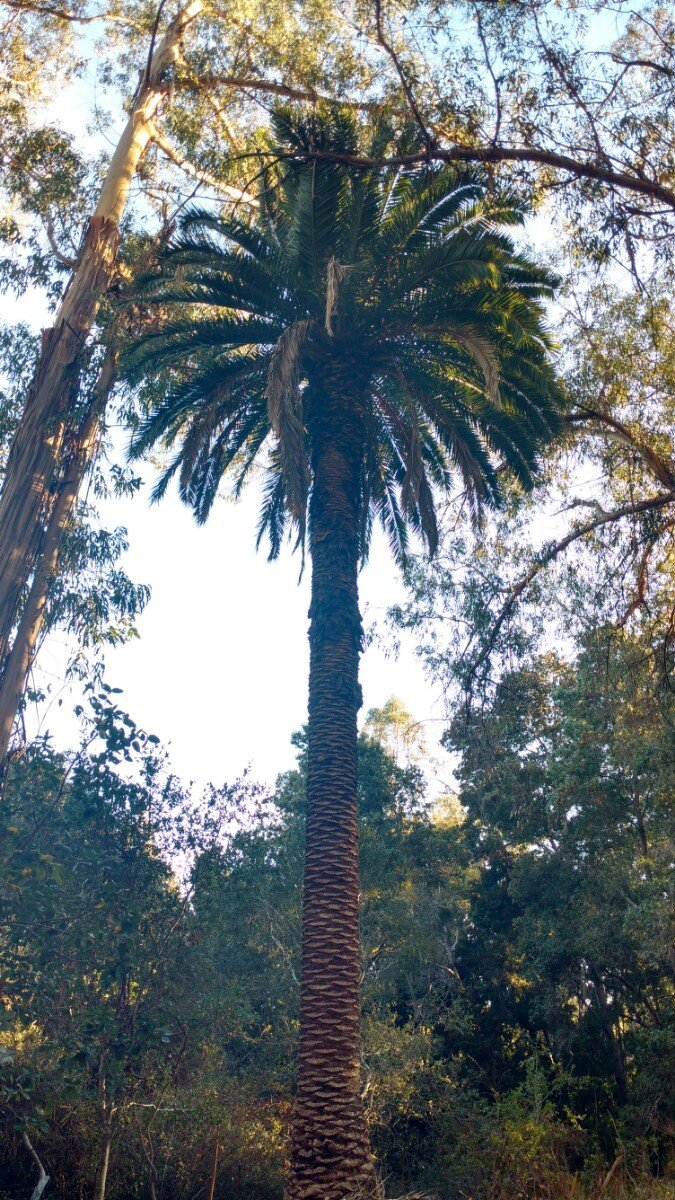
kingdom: Plantae
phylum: Tracheophyta
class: Liliopsida
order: Arecales
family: Arecaceae
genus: Phoenix
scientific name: Phoenix canariensis
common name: Canary island date palm
